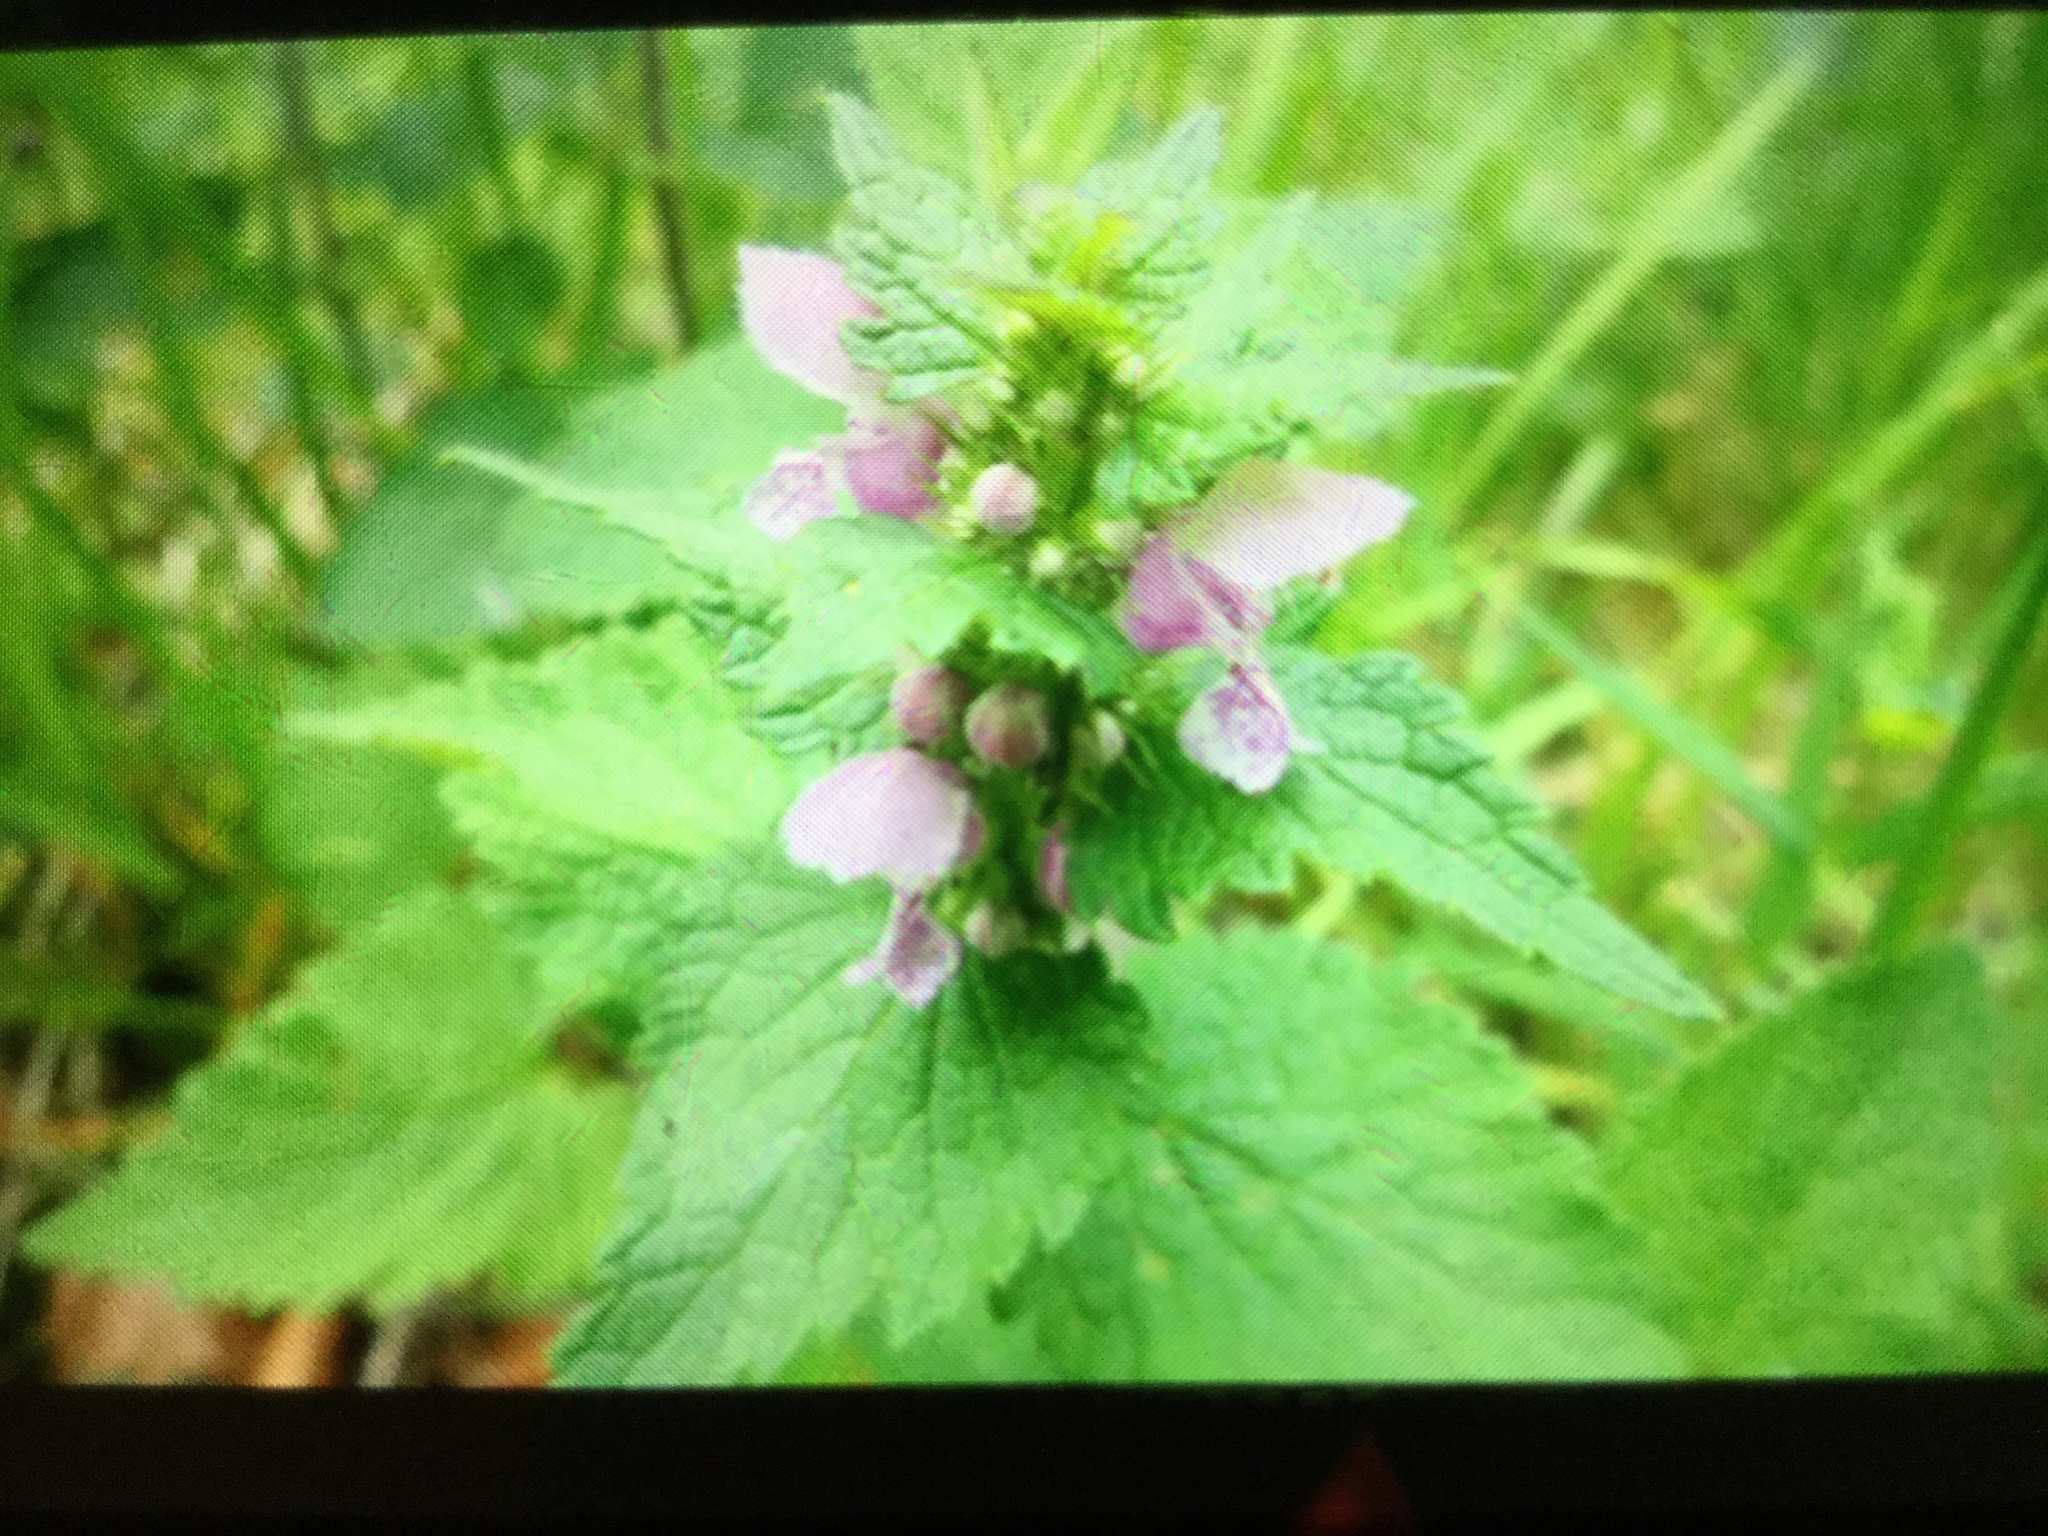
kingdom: Plantae
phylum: Tracheophyta
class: Magnoliopsida
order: Lamiales
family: Lamiaceae
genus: Lamium
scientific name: Lamium maculatum
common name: Spotted dead-nettle
